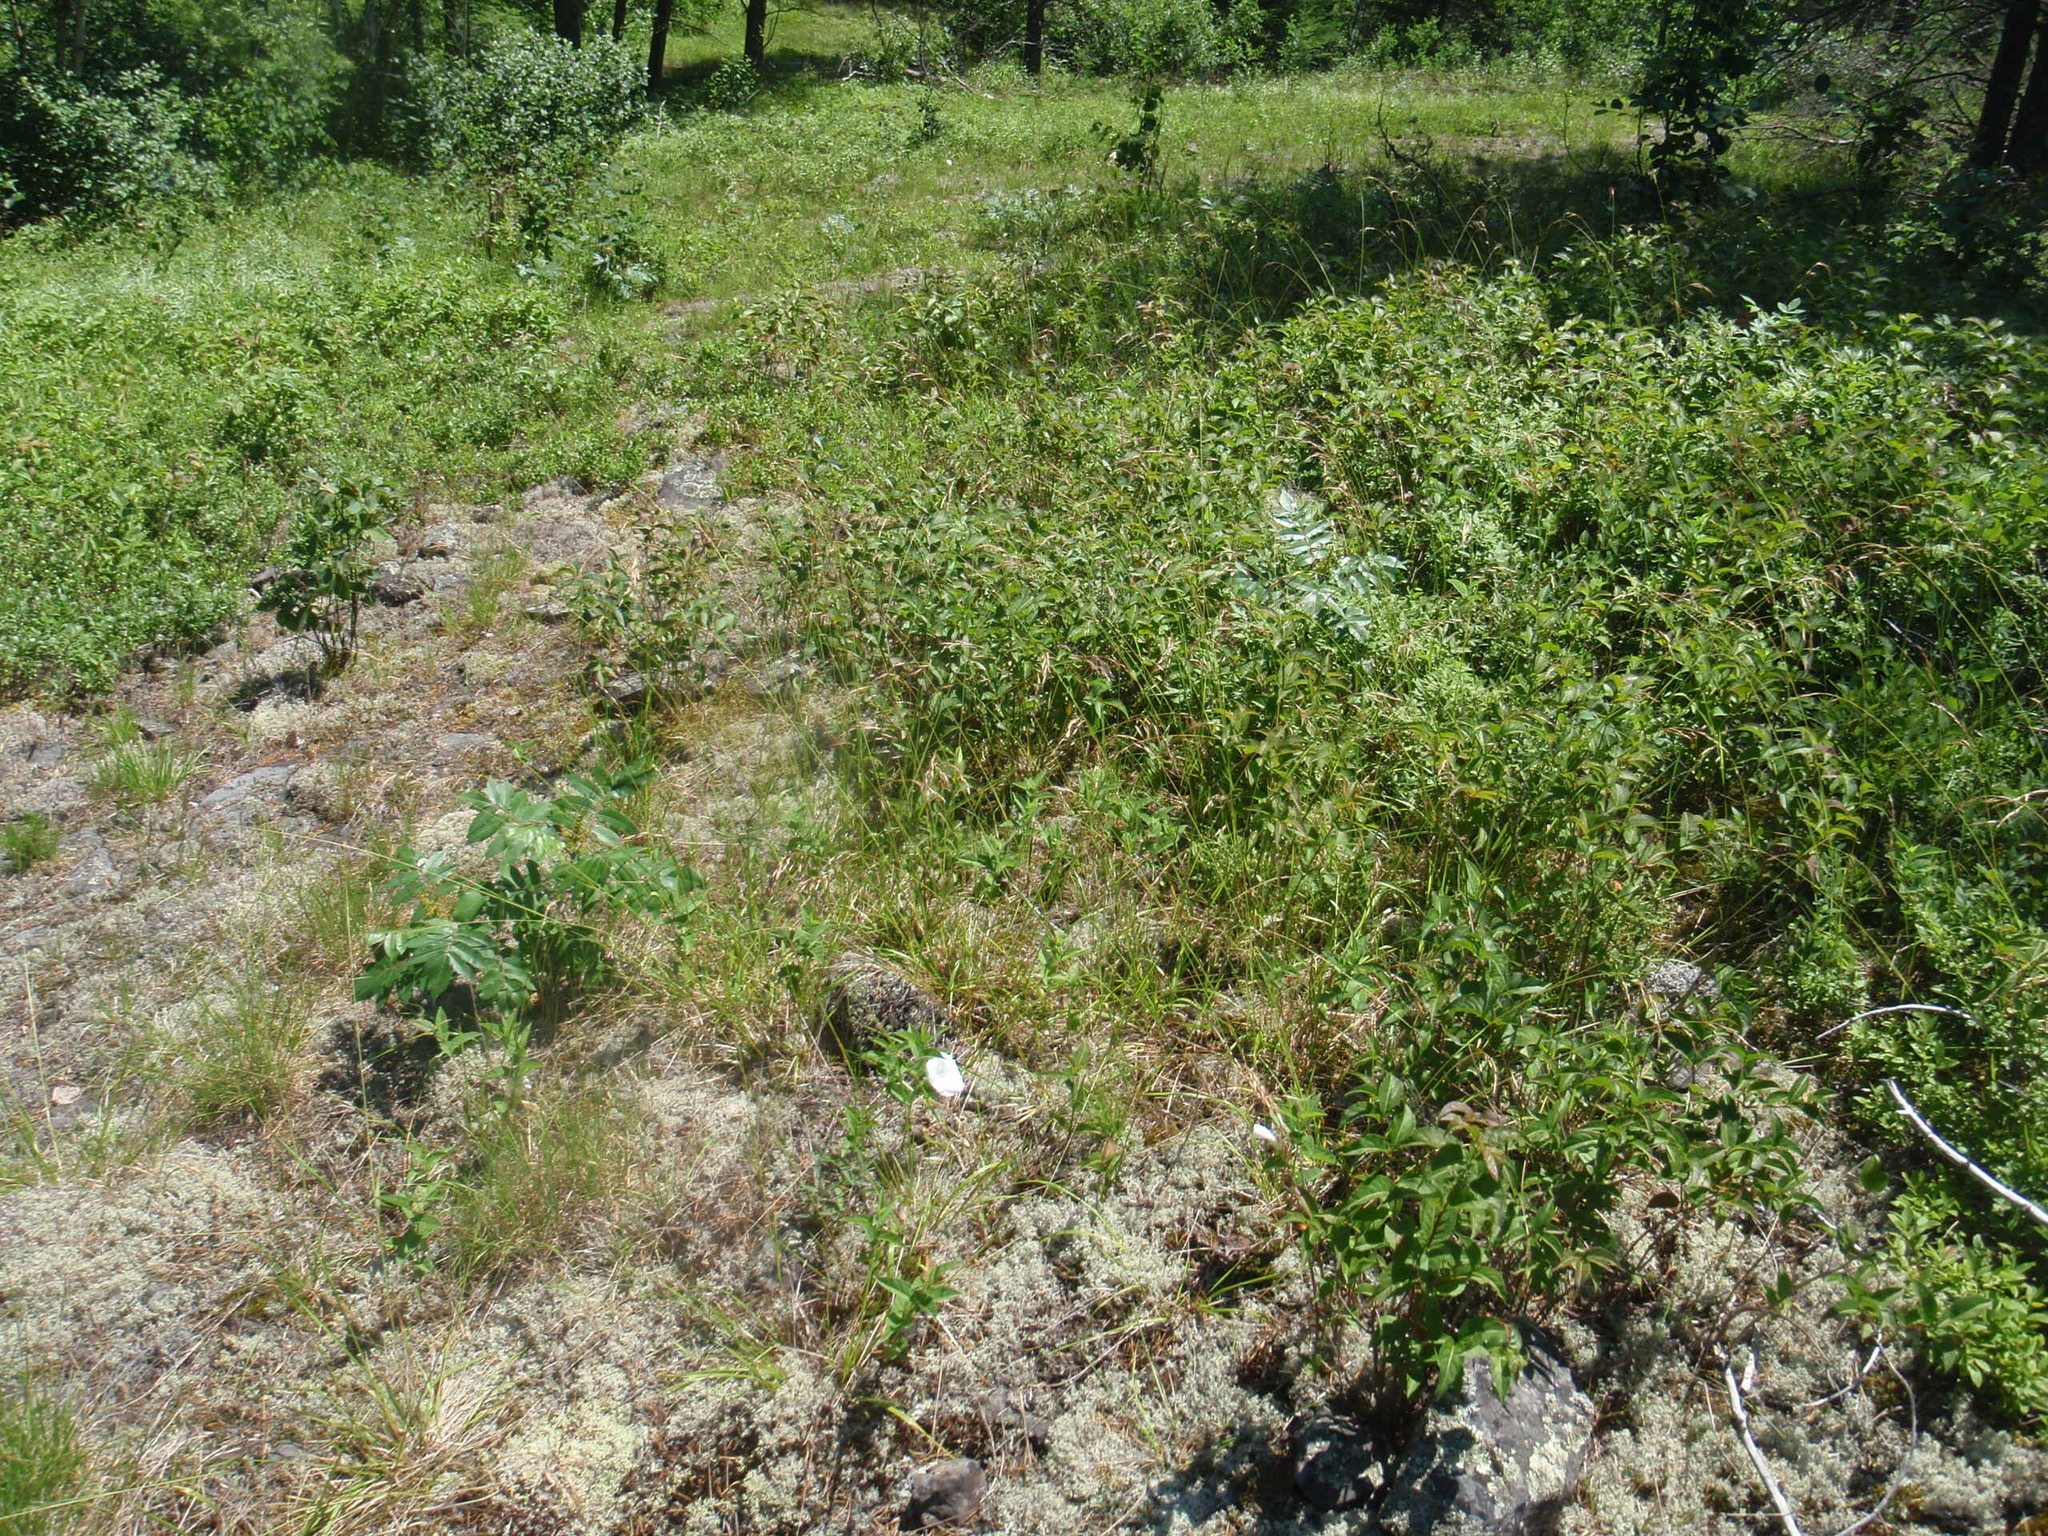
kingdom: Plantae
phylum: Tracheophyta
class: Magnoliopsida
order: Solanales
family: Convolvulaceae
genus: Calystegia
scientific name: Calystegia spithamaea
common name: Dwarf bindweed
